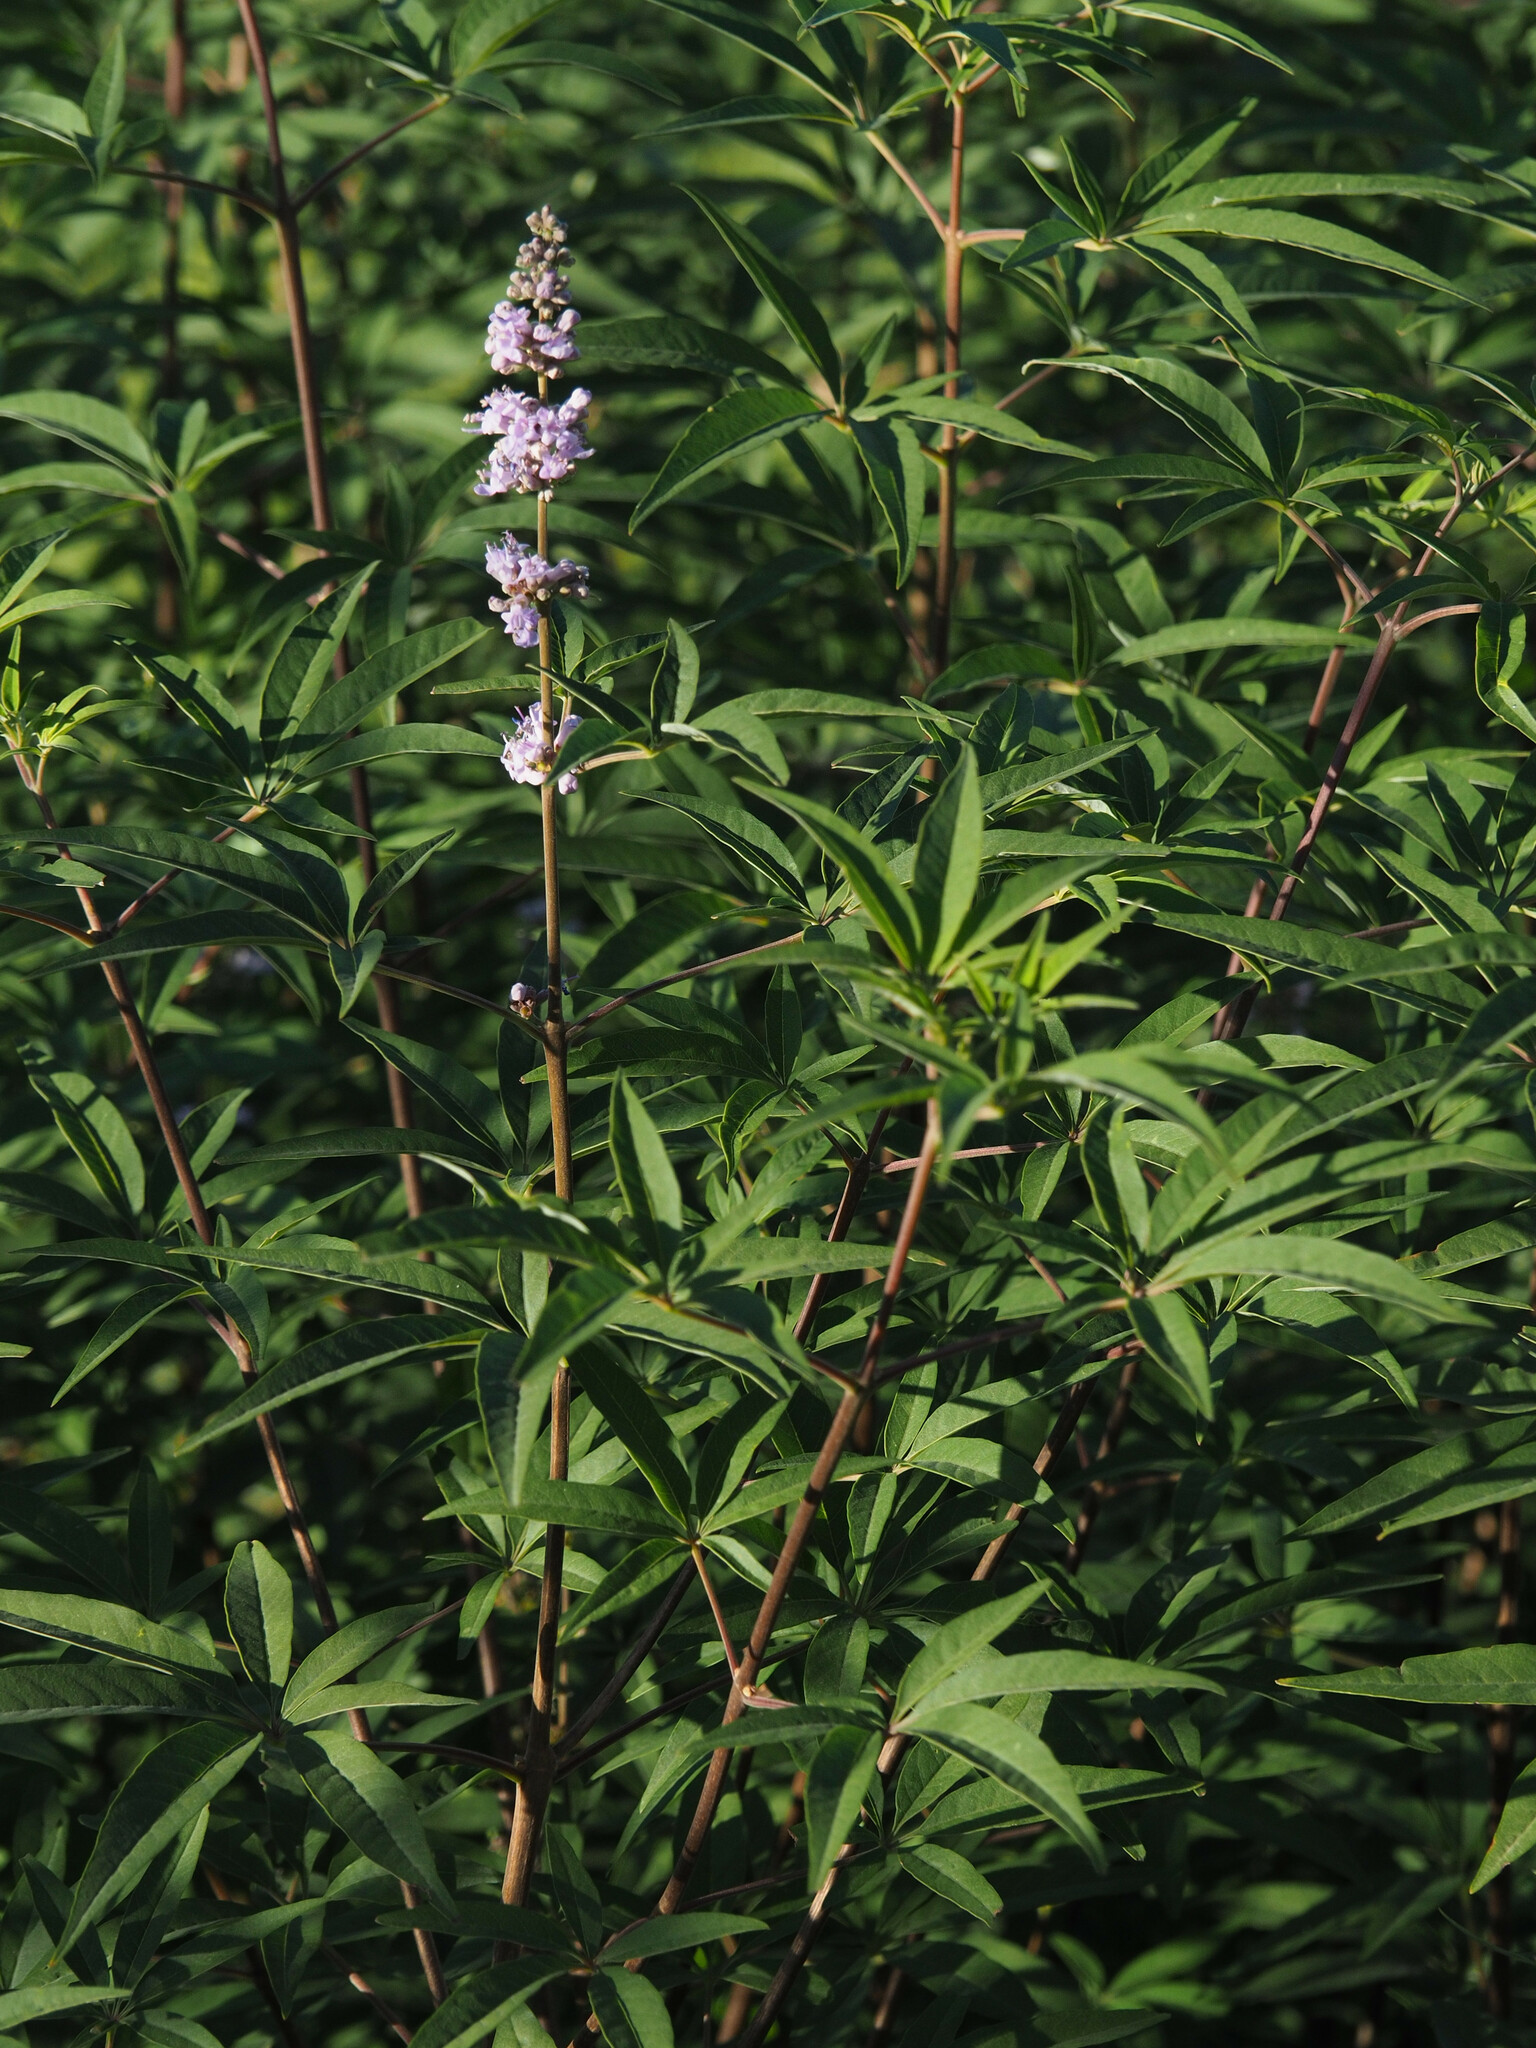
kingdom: Plantae
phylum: Tracheophyta
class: Magnoliopsida
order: Lamiales
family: Lamiaceae
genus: Vitex
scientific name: Vitex agnus-castus
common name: Chasteberry
